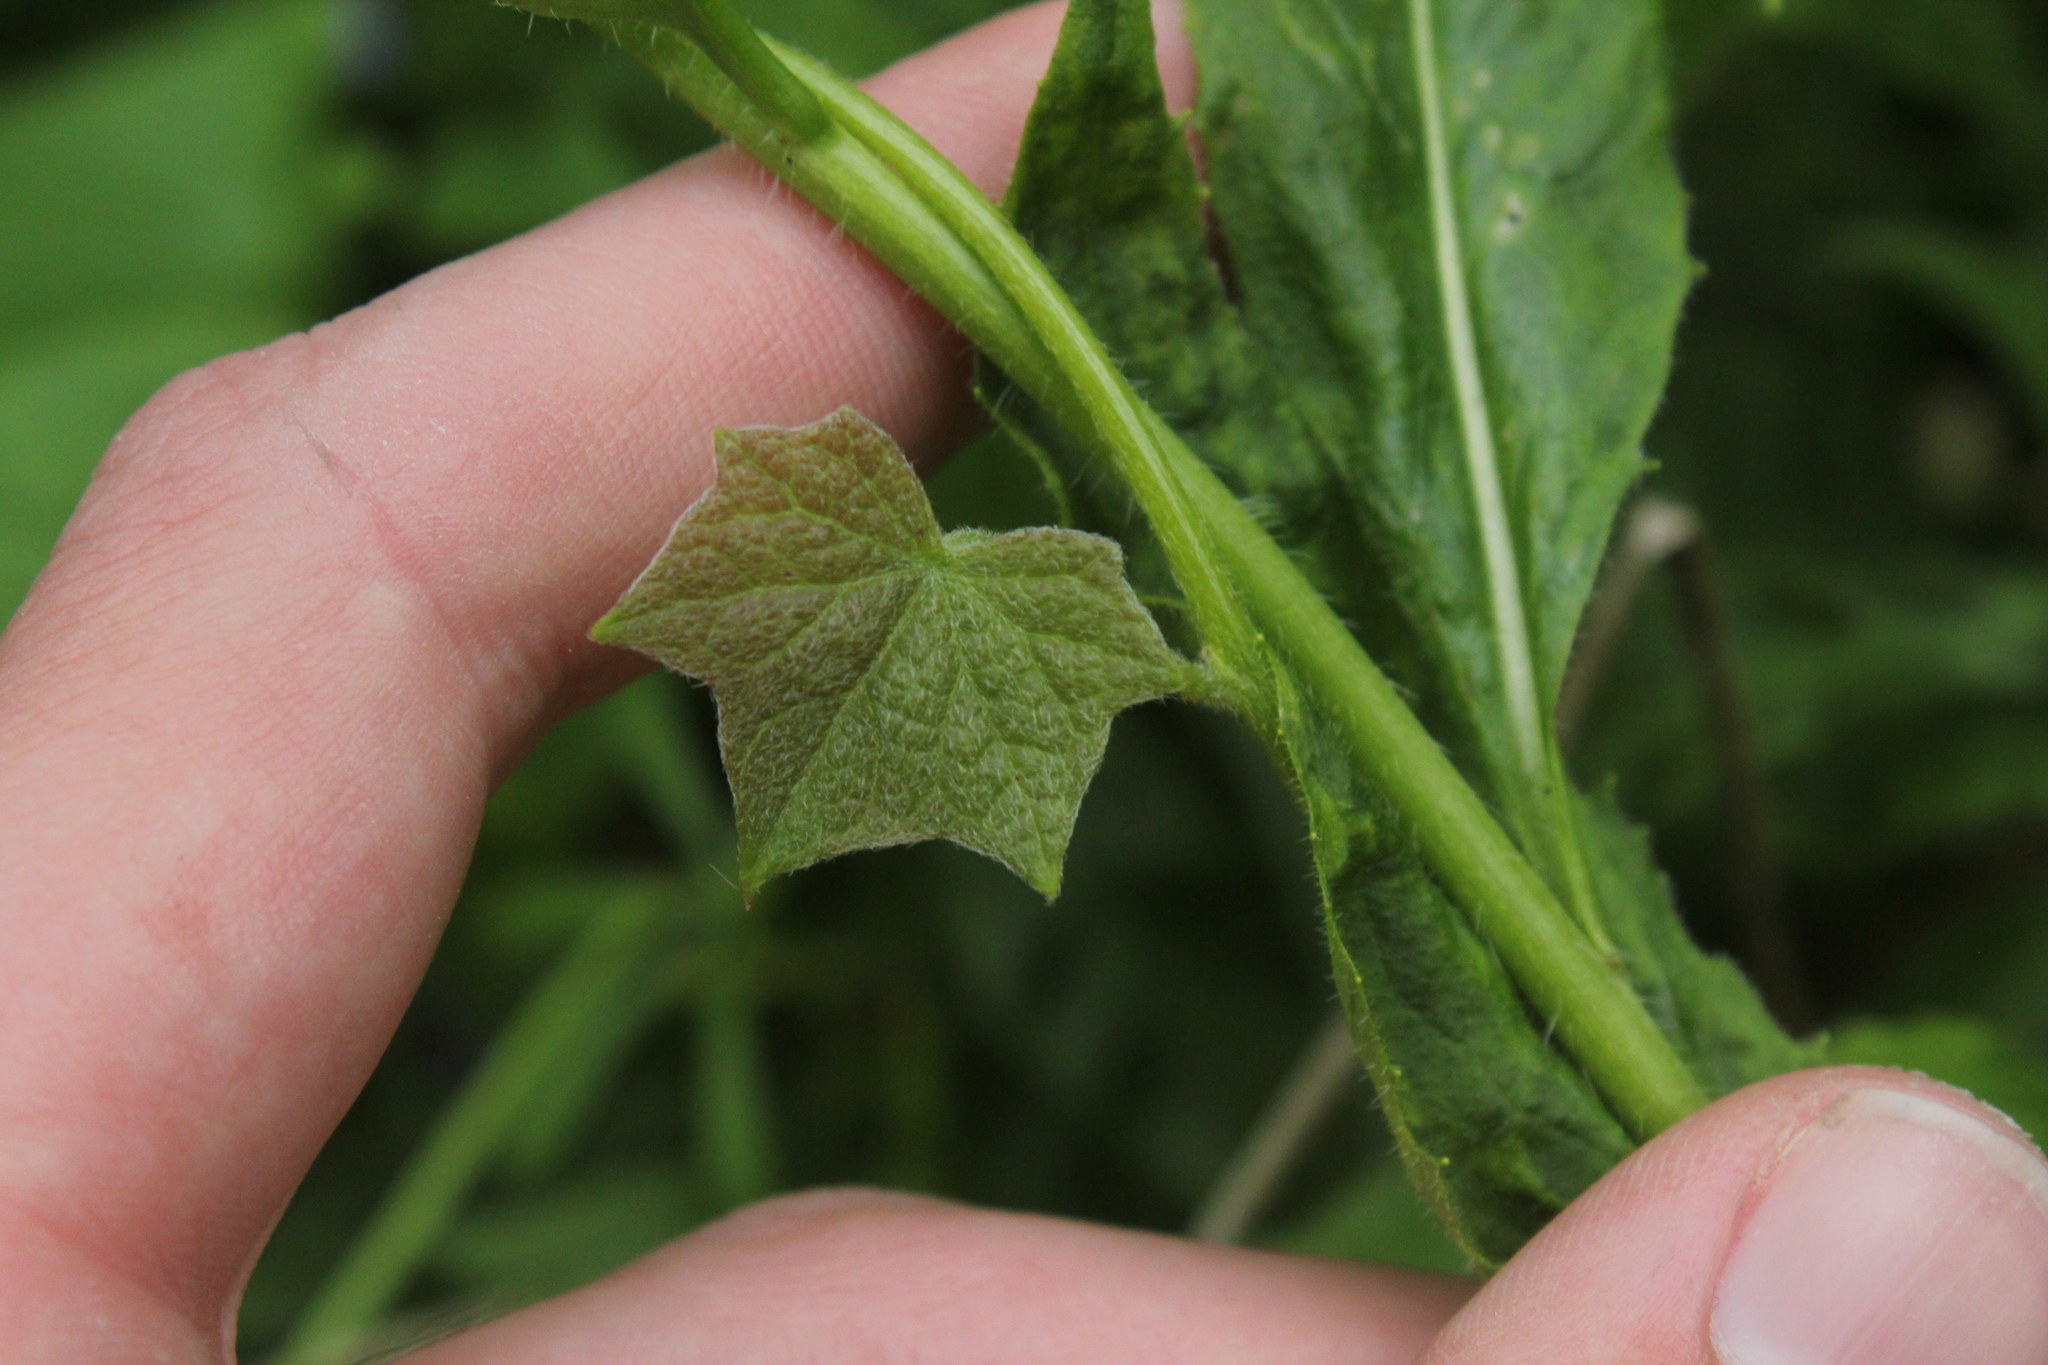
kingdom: Plantae
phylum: Tracheophyta
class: Magnoliopsida
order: Ranunculales
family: Menispermaceae
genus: Menispermum
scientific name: Menispermum canadense
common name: Moonseed
